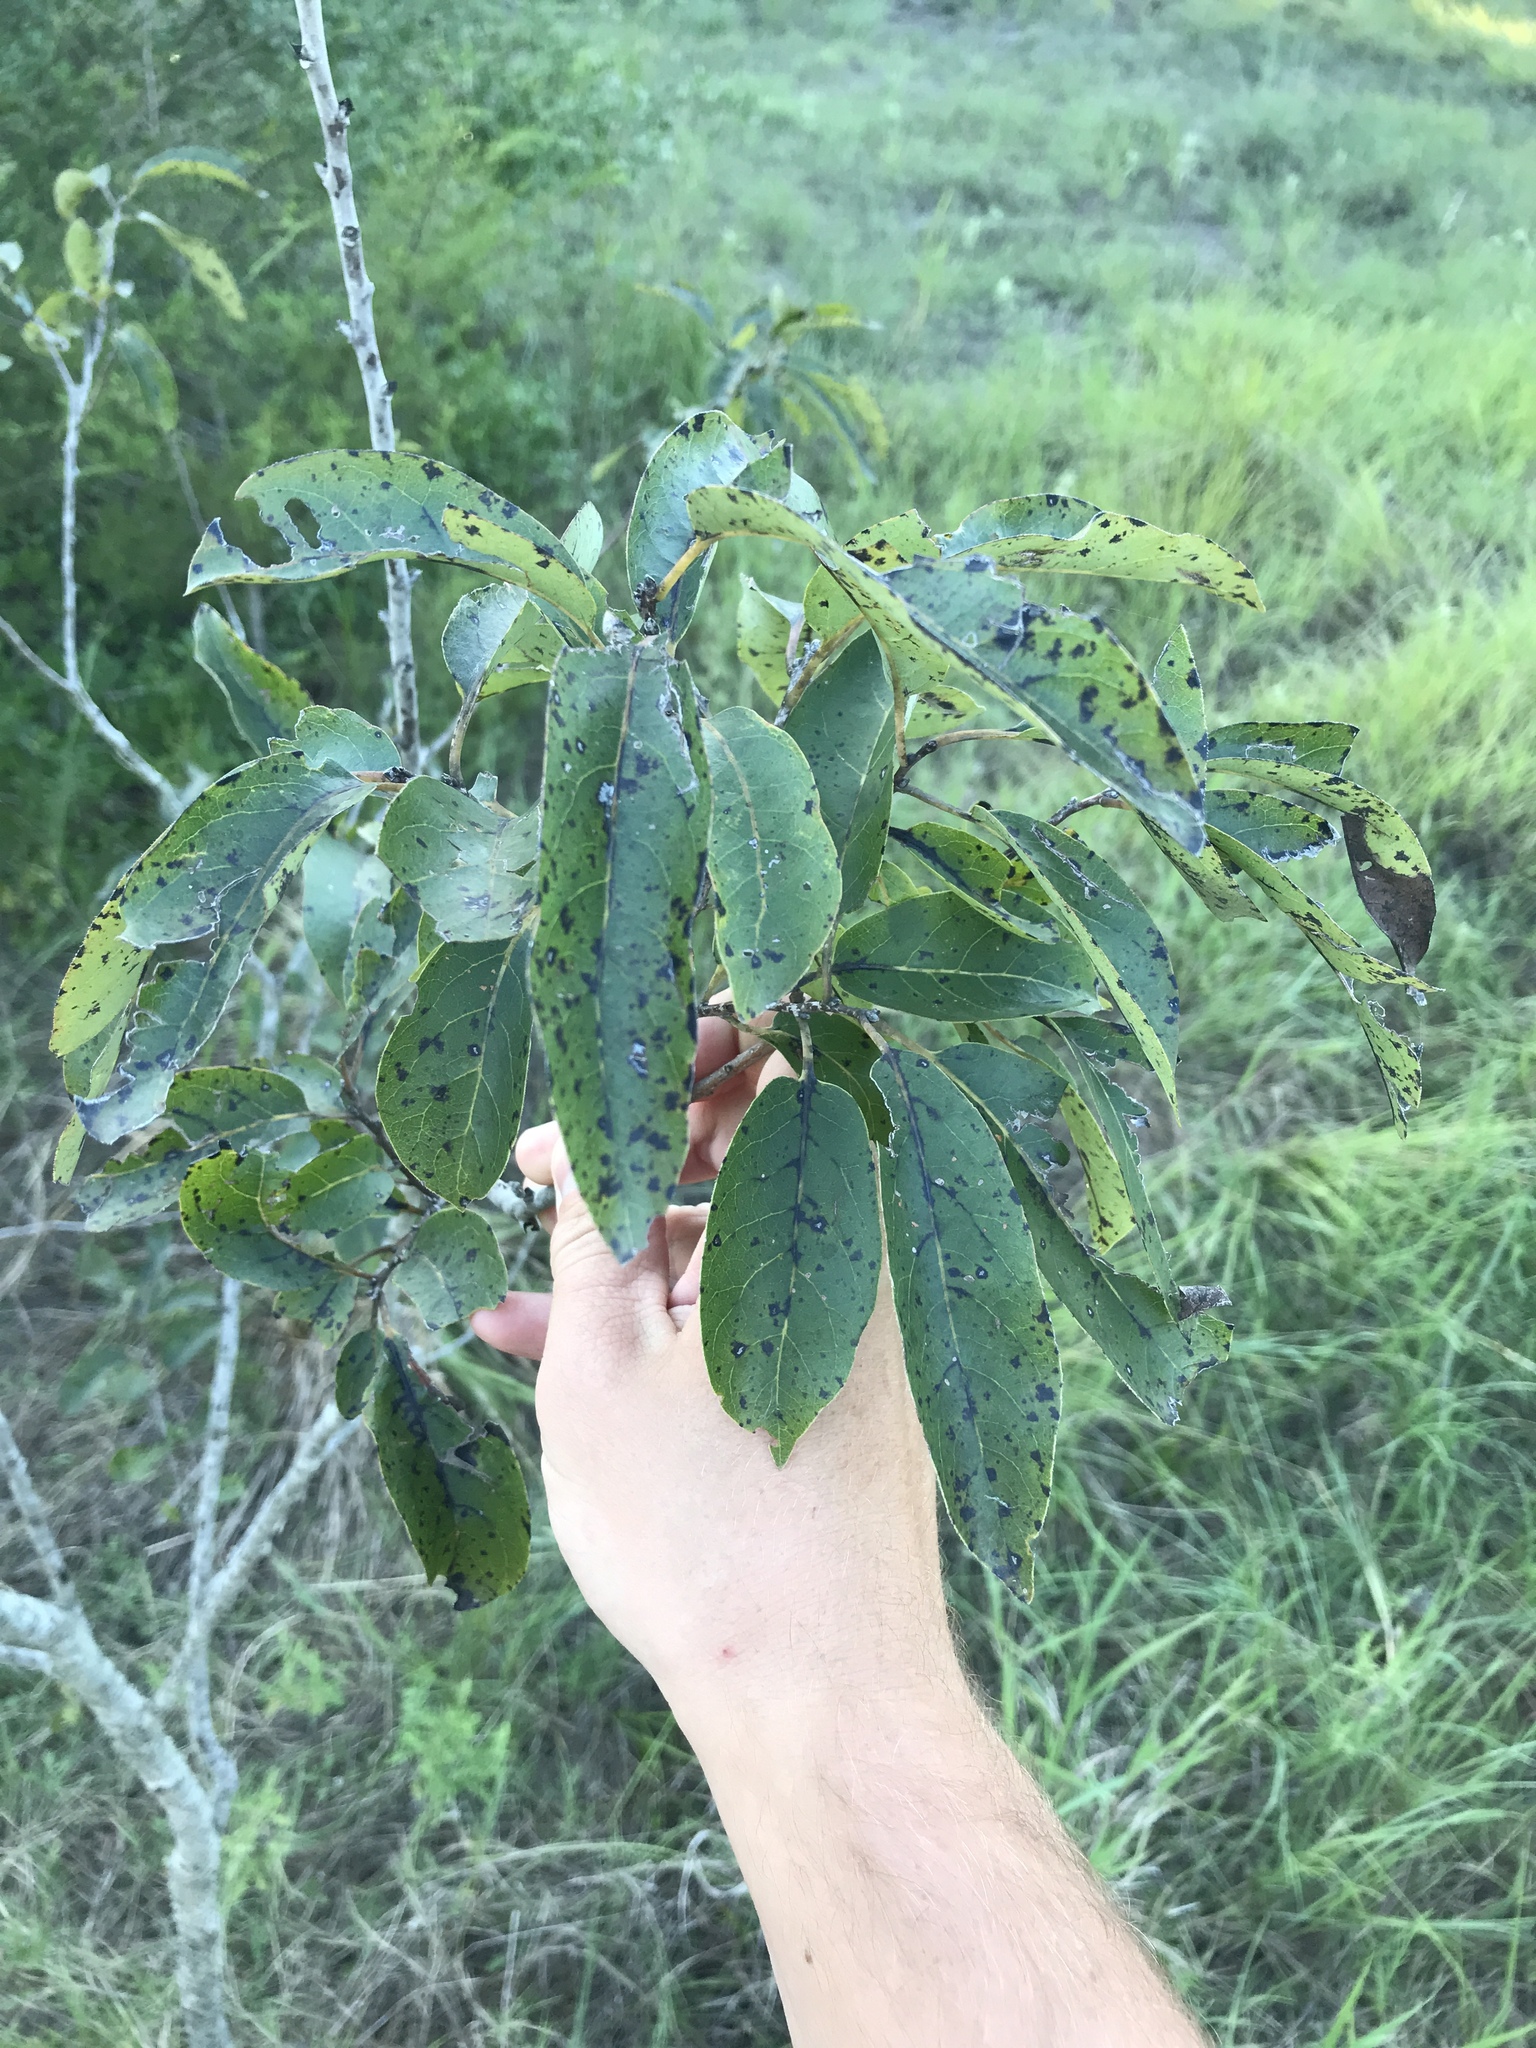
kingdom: Plantae
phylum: Tracheophyta
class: Magnoliopsida
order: Ericales
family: Ebenaceae
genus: Diospyros
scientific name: Diospyros virginiana
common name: Persimmon
